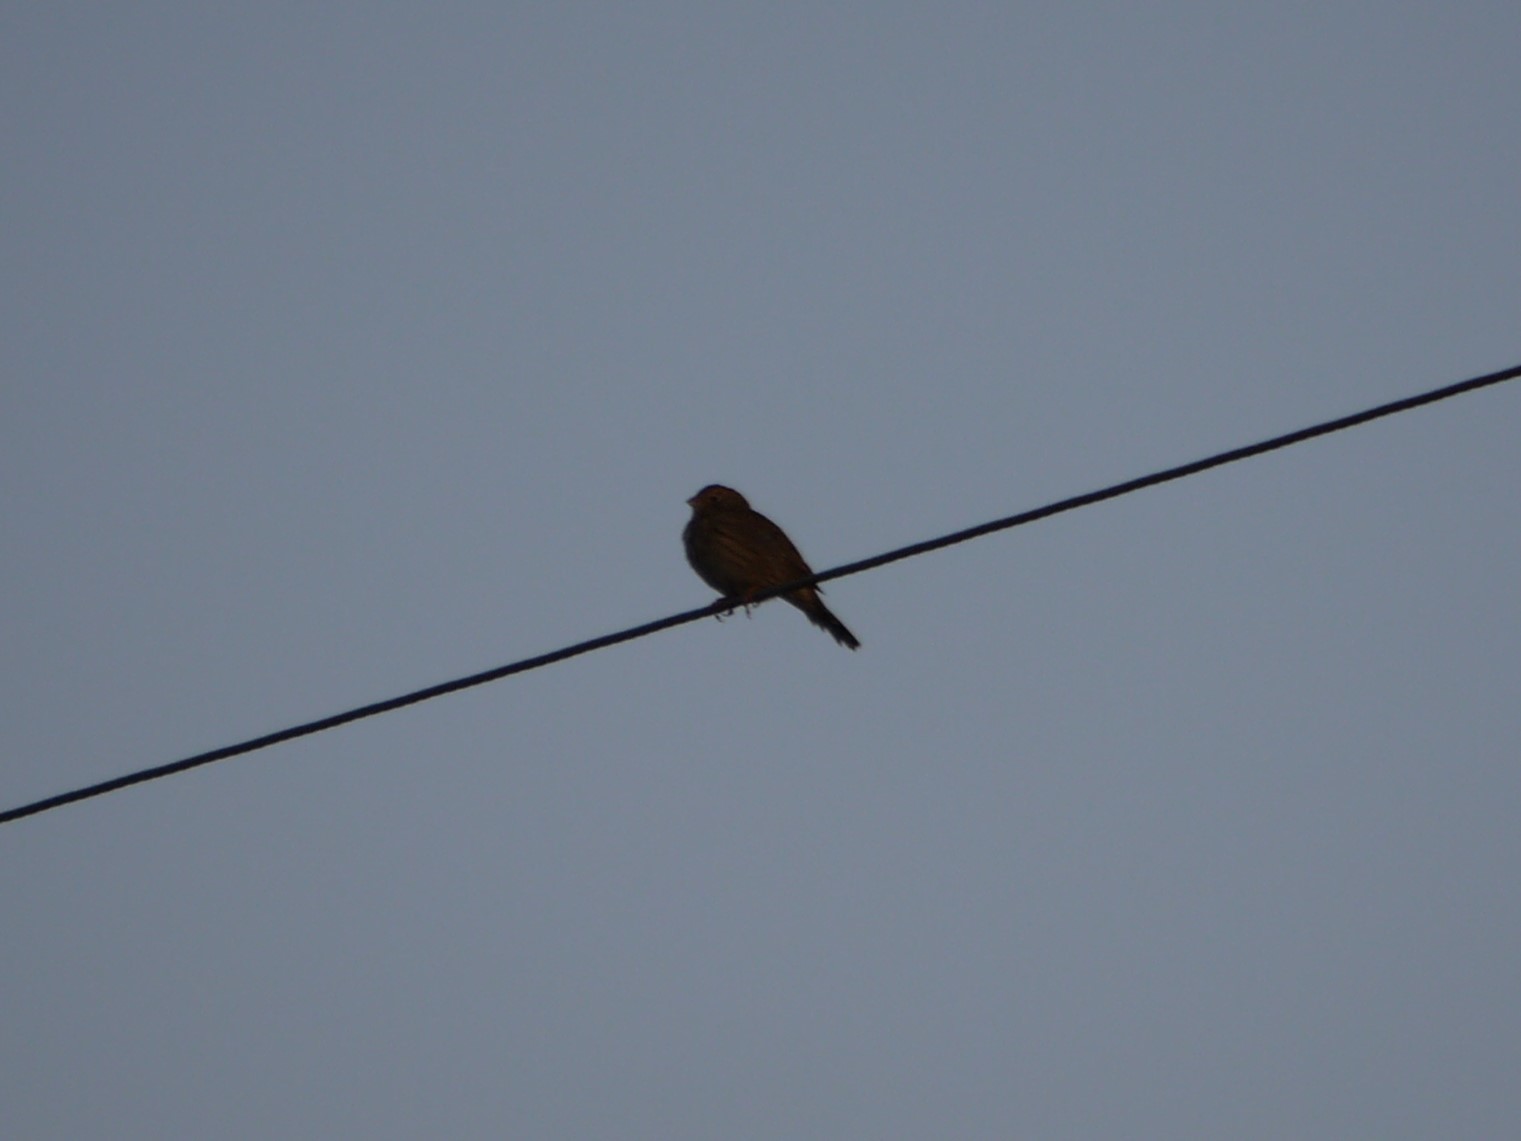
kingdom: Animalia
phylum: Chordata
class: Aves
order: Passeriformes
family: Emberizidae
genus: Emberiza
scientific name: Emberiza calandra
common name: Corn bunting
